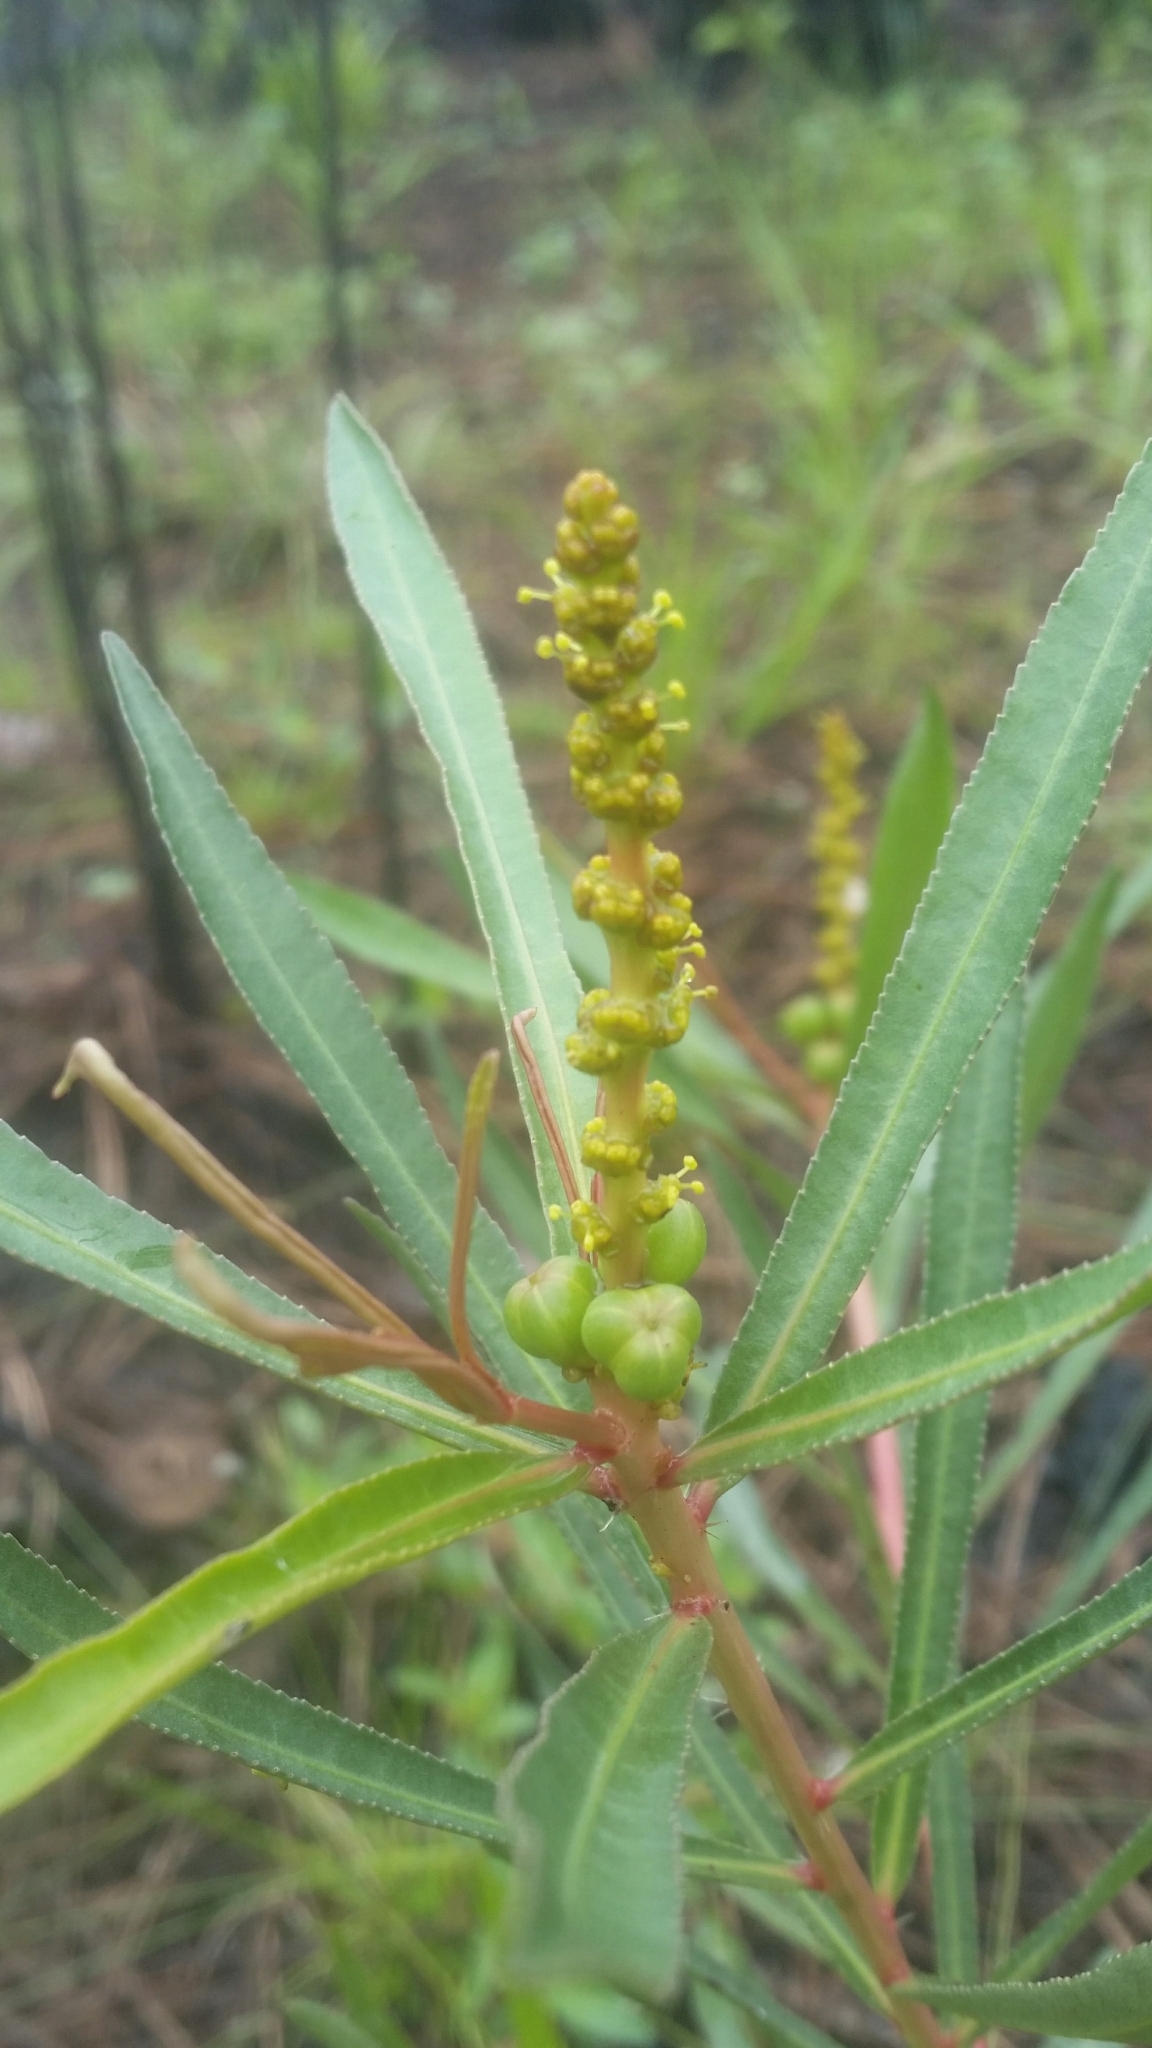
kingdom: Plantae
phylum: Tracheophyta
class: Magnoliopsida
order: Malpighiales
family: Euphorbiaceae
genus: Stillingia
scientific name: Stillingia sylvatica
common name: Queen's-delight
